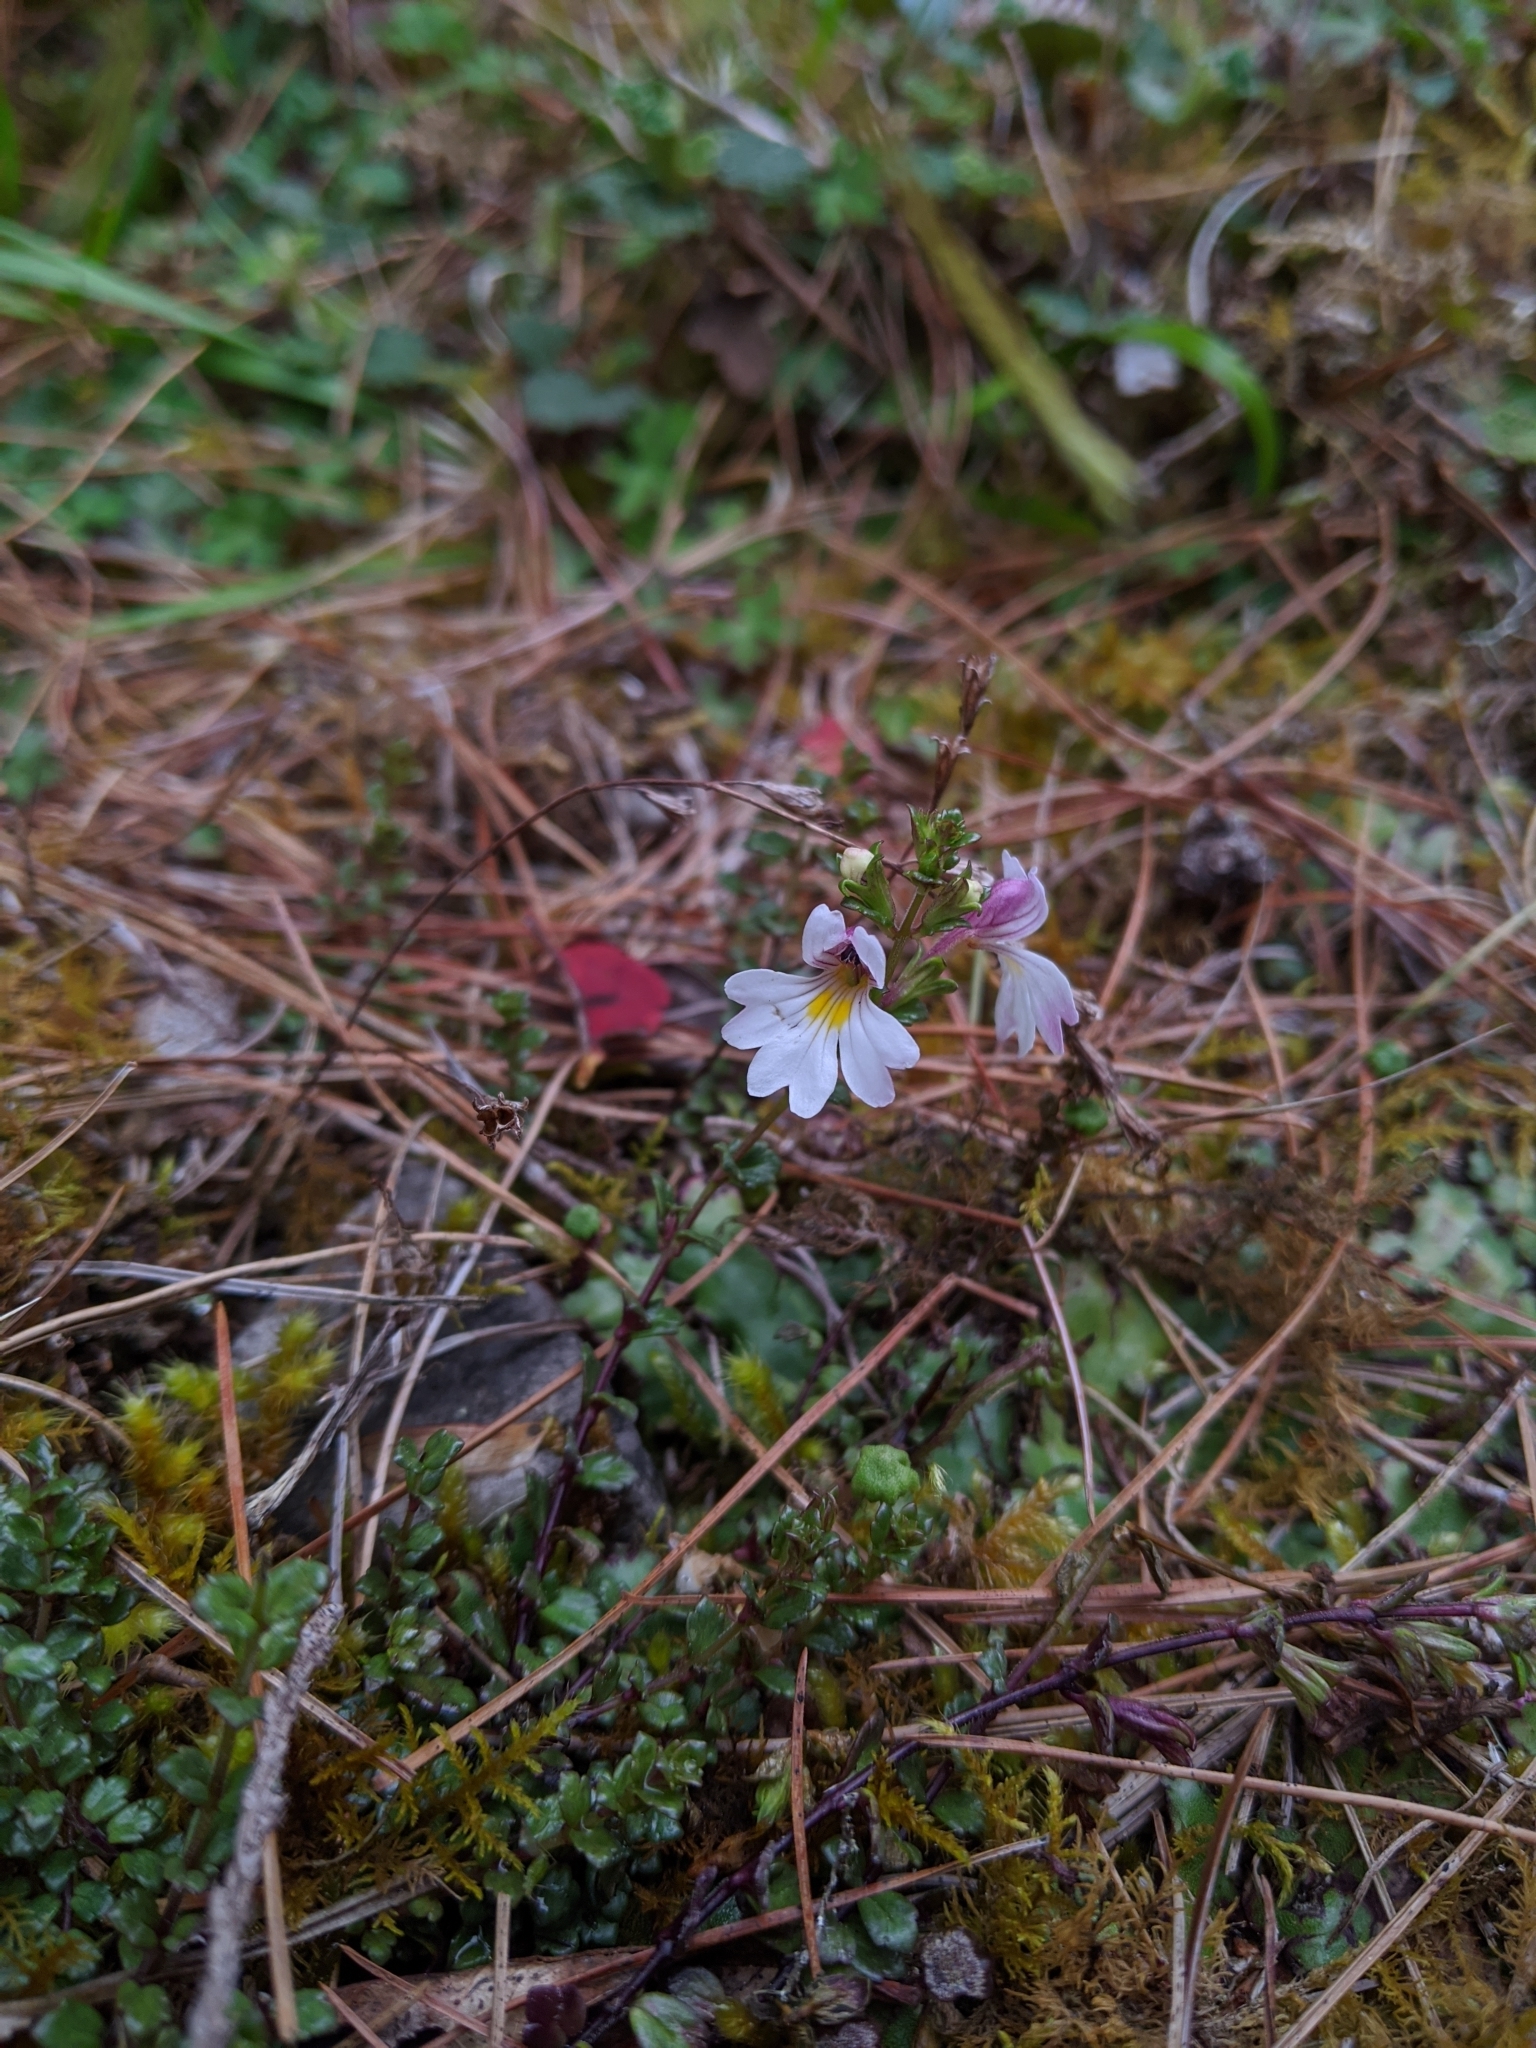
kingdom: Plantae
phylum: Tracheophyta
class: Magnoliopsida
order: Lamiales
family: Orobanchaceae
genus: Euphrasia
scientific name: Euphrasia tarokoana
